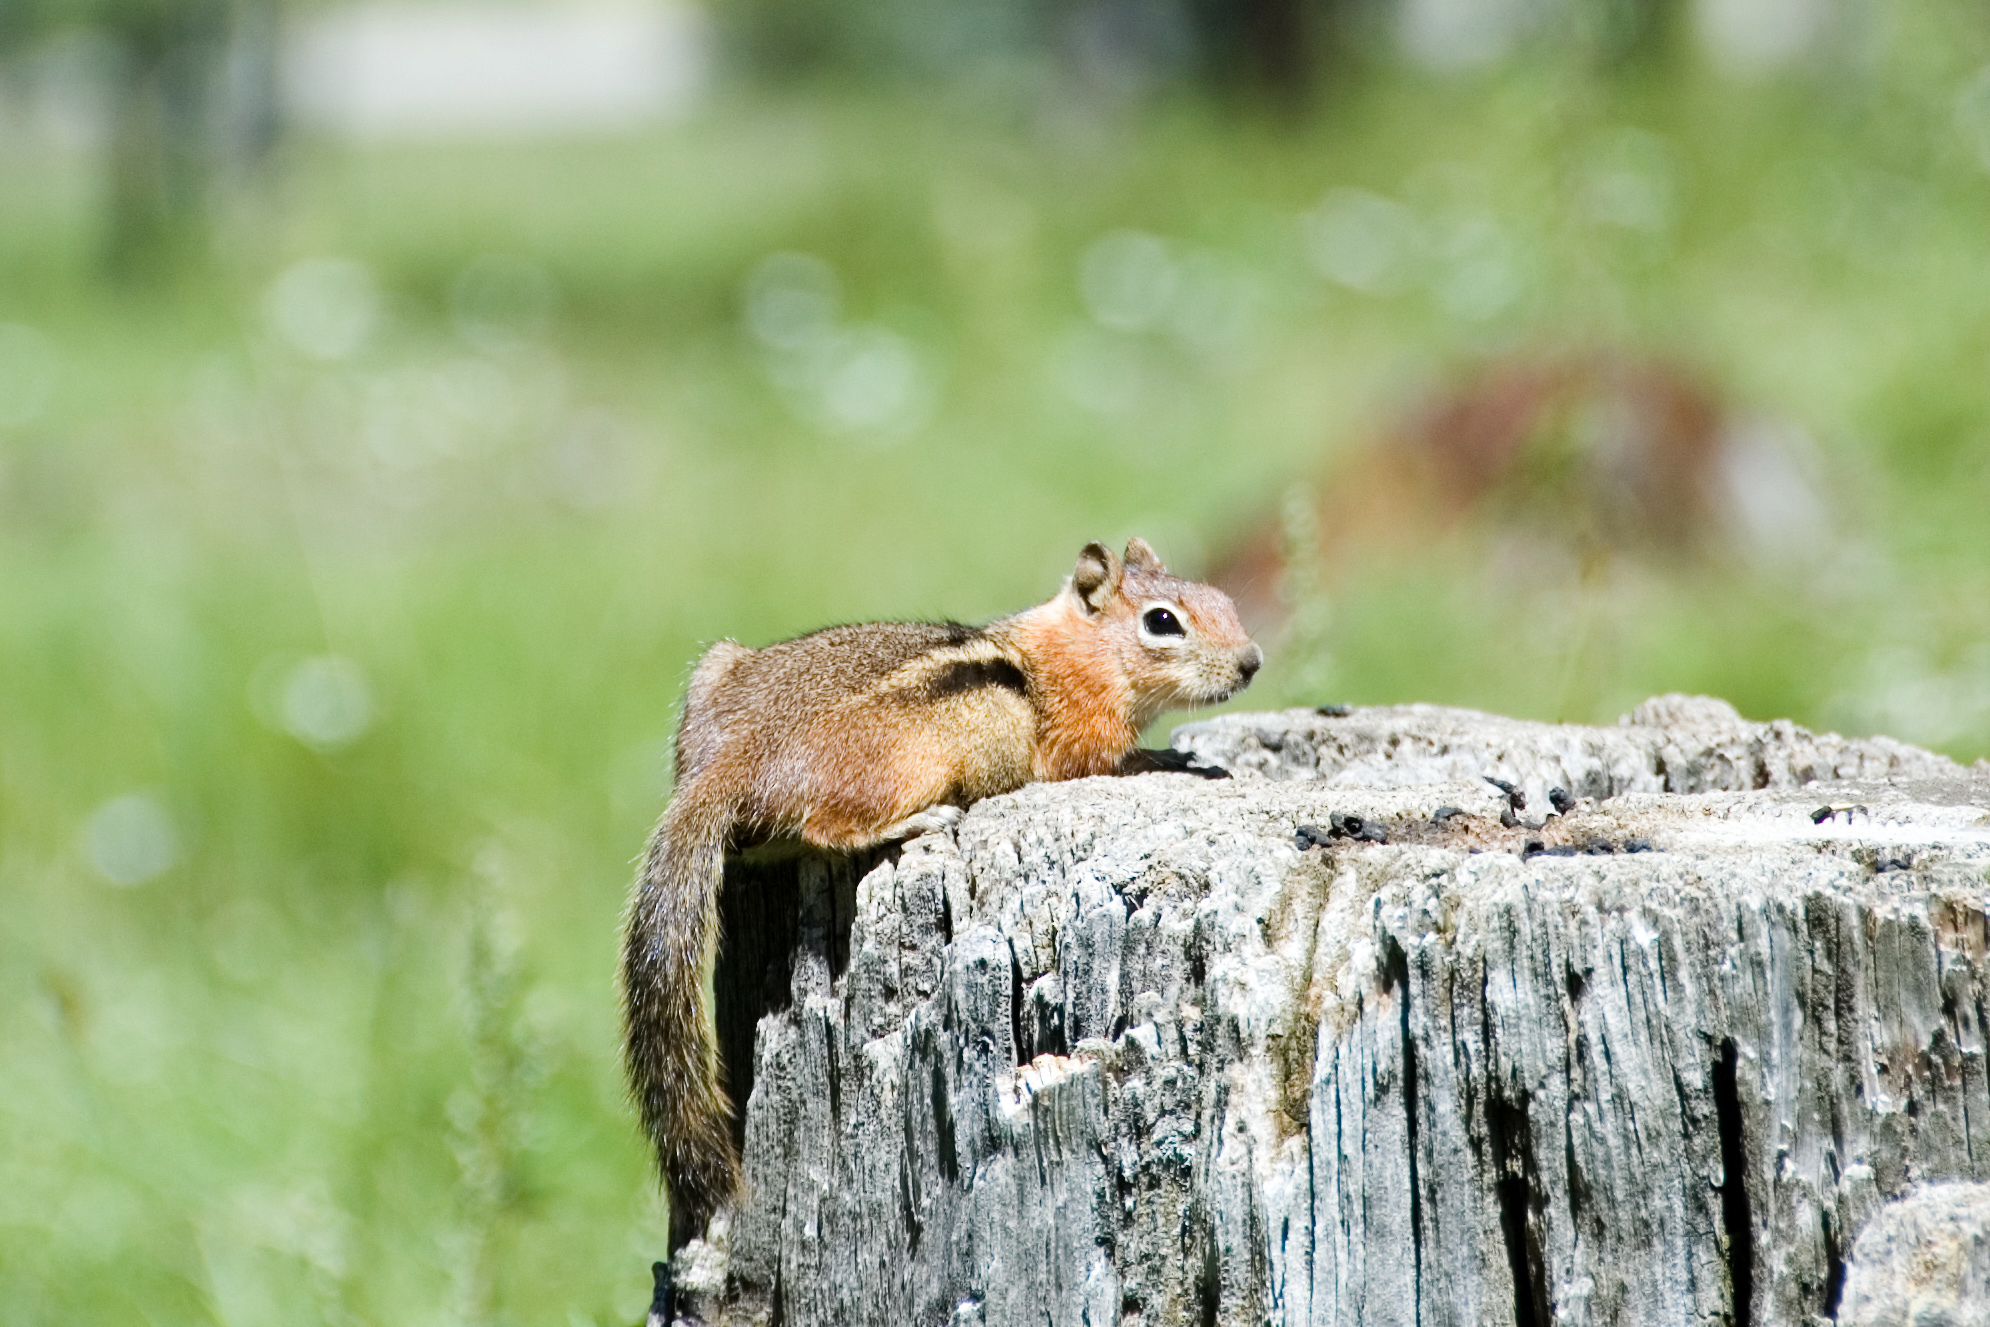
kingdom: Animalia
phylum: Chordata
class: Mammalia
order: Rodentia
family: Sciuridae
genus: Callospermophilus
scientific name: Callospermophilus lateralis
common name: Golden-mantled ground squirrel
